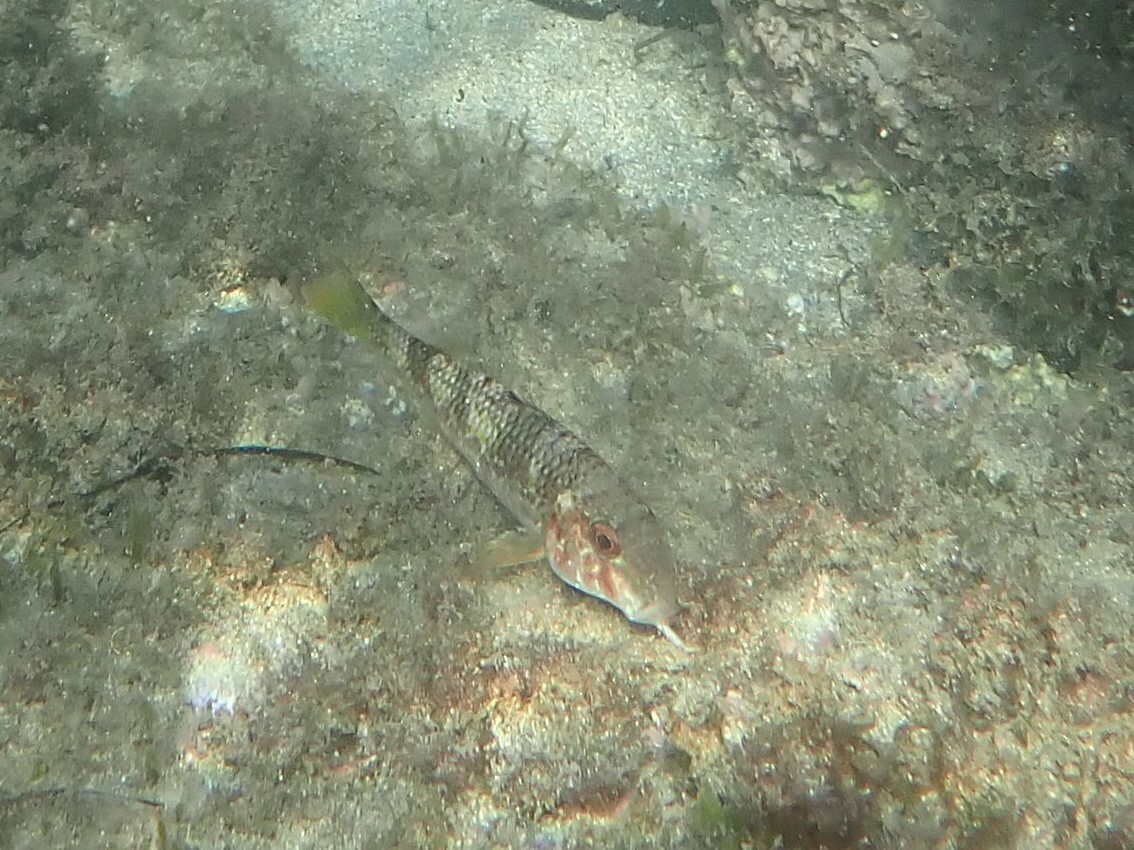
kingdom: Animalia
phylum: Chordata
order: Perciformes
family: Mullidae
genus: Mullus
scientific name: Mullus surmuletus
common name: Red mullet
